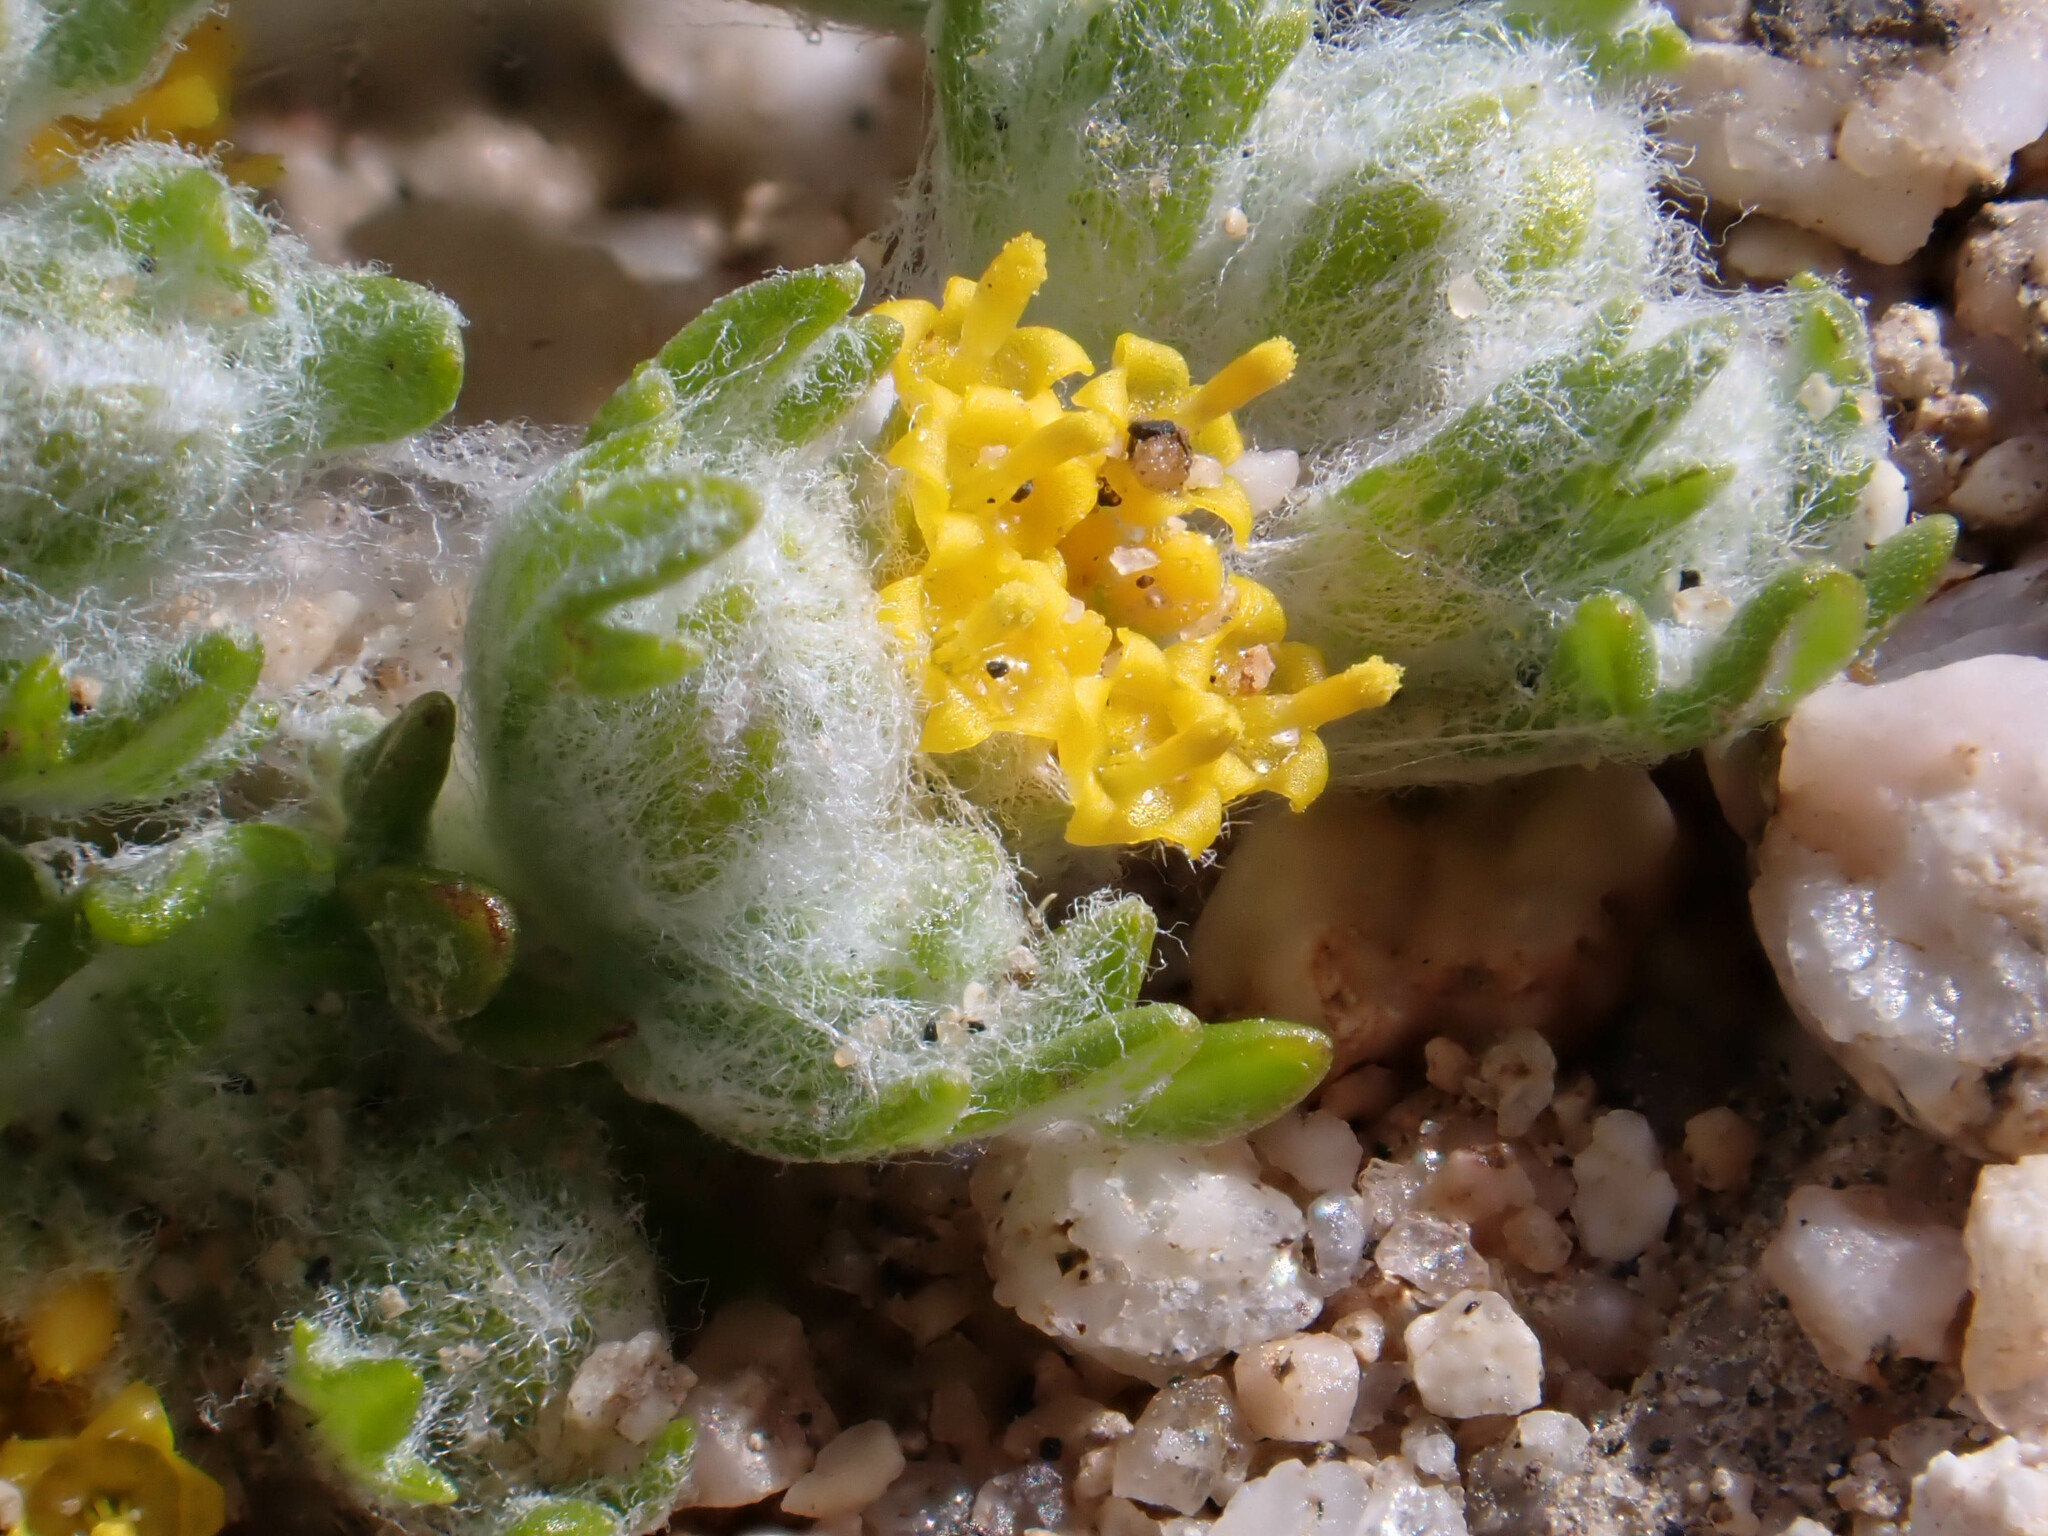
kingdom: Plantae
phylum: Tracheophyta
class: Magnoliopsida
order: Asterales
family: Asteraceae
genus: Eriophyllum
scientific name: Eriophyllum pringlei
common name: Pringle's woolly-sunflower
